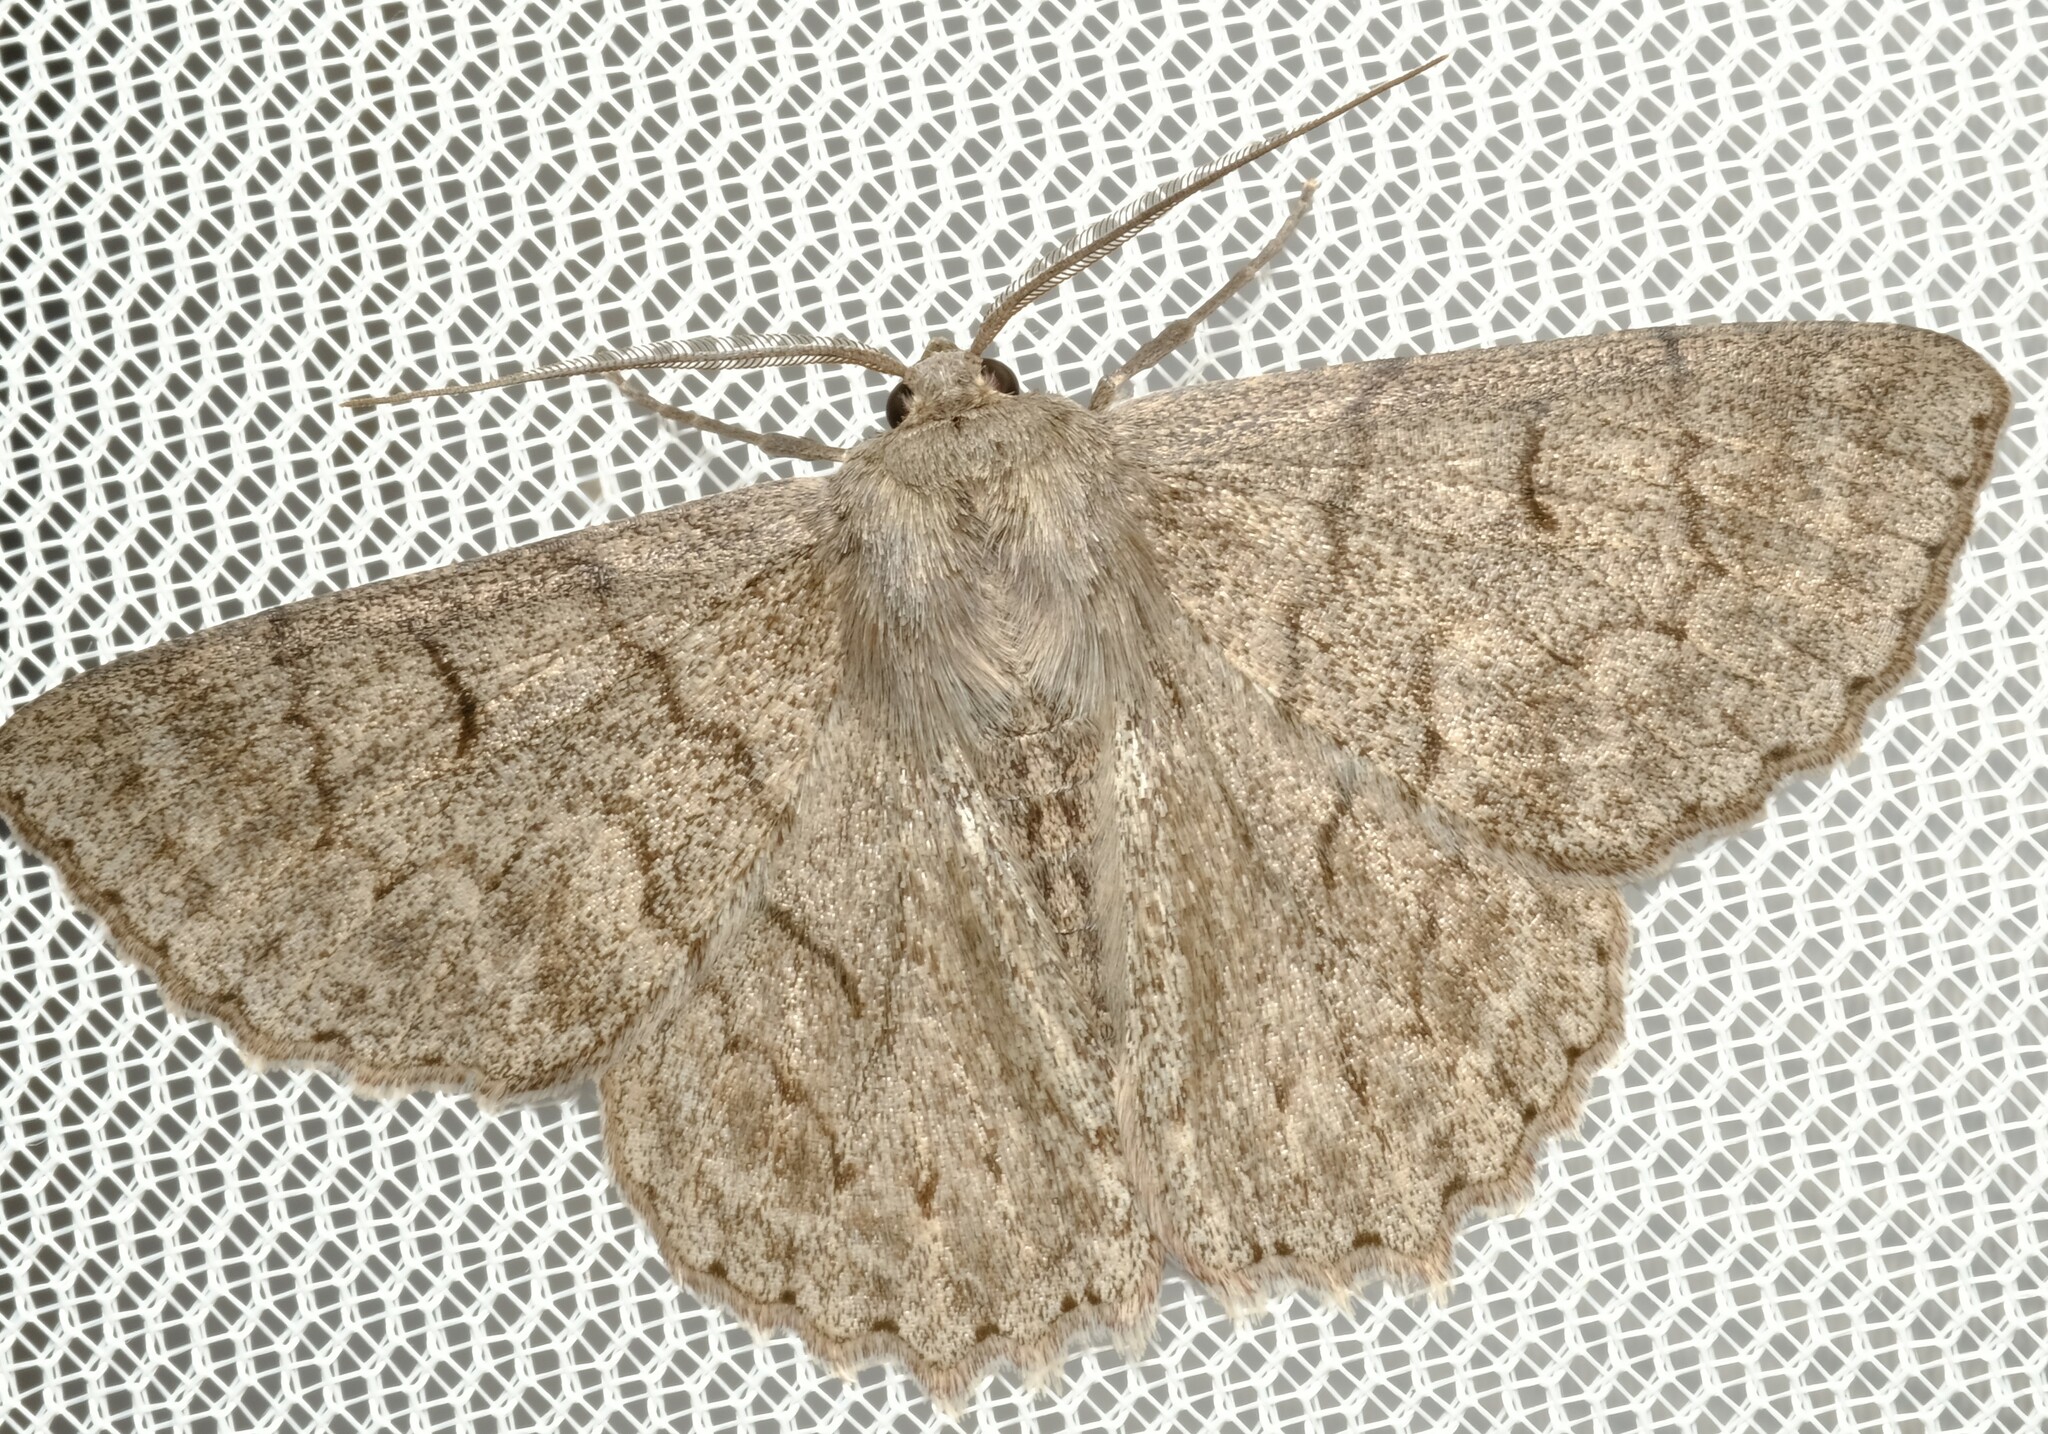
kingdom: Animalia
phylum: Arthropoda
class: Insecta
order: Lepidoptera
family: Geometridae
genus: Crypsiphona
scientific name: Crypsiphona ocultaria
